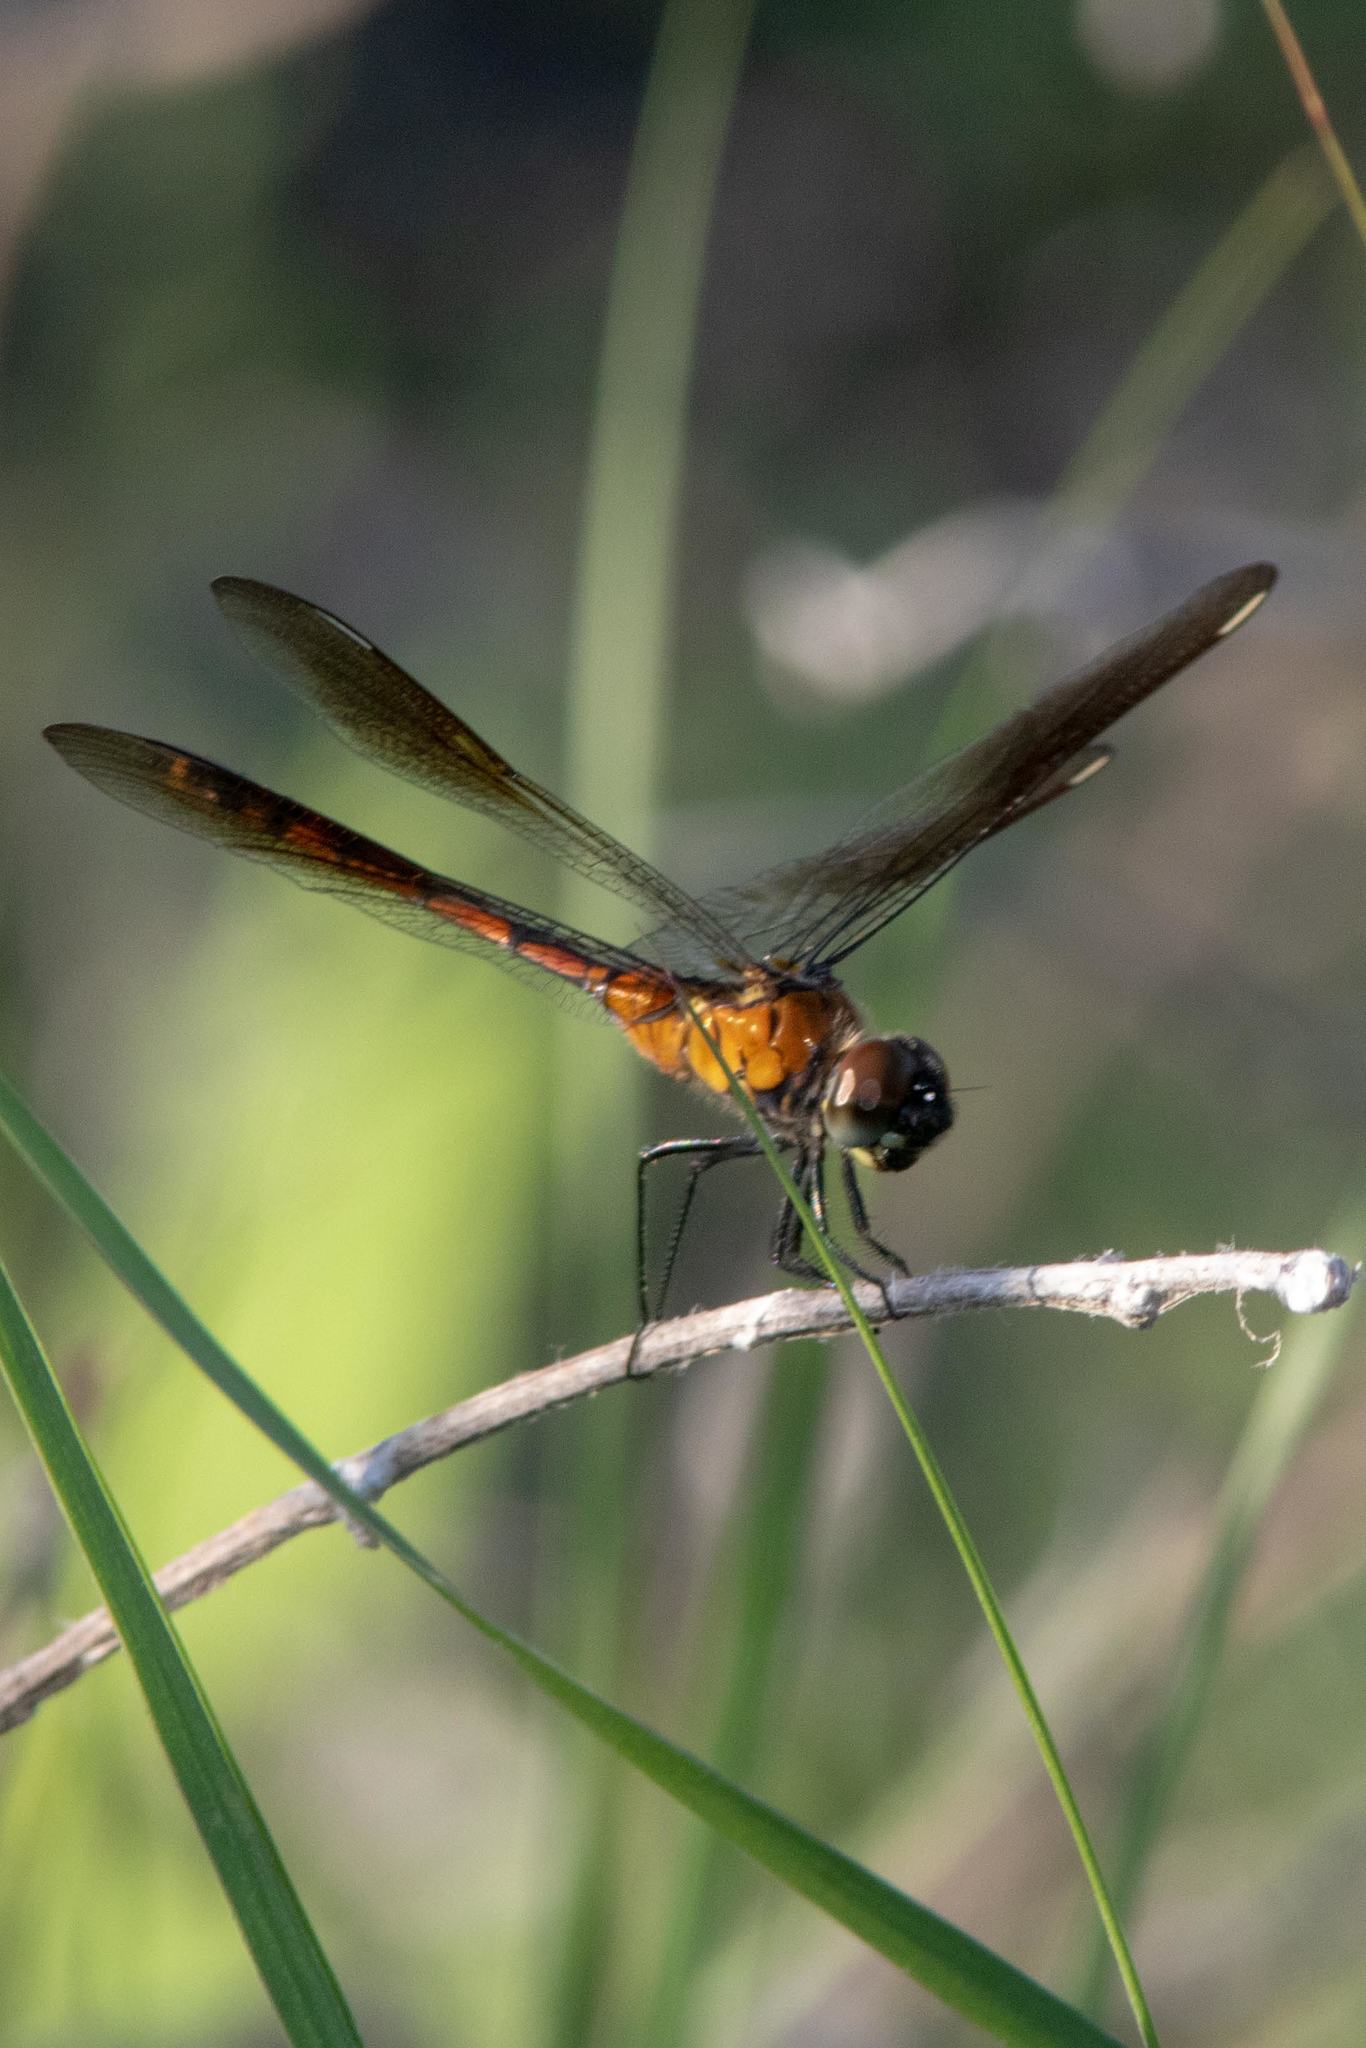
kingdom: Animalia
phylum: Arthropoda
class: Insecta
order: Odonata
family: Libellulidae
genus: Brachymesia
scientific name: Brachymesia gravida
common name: Four-spotted pennant
